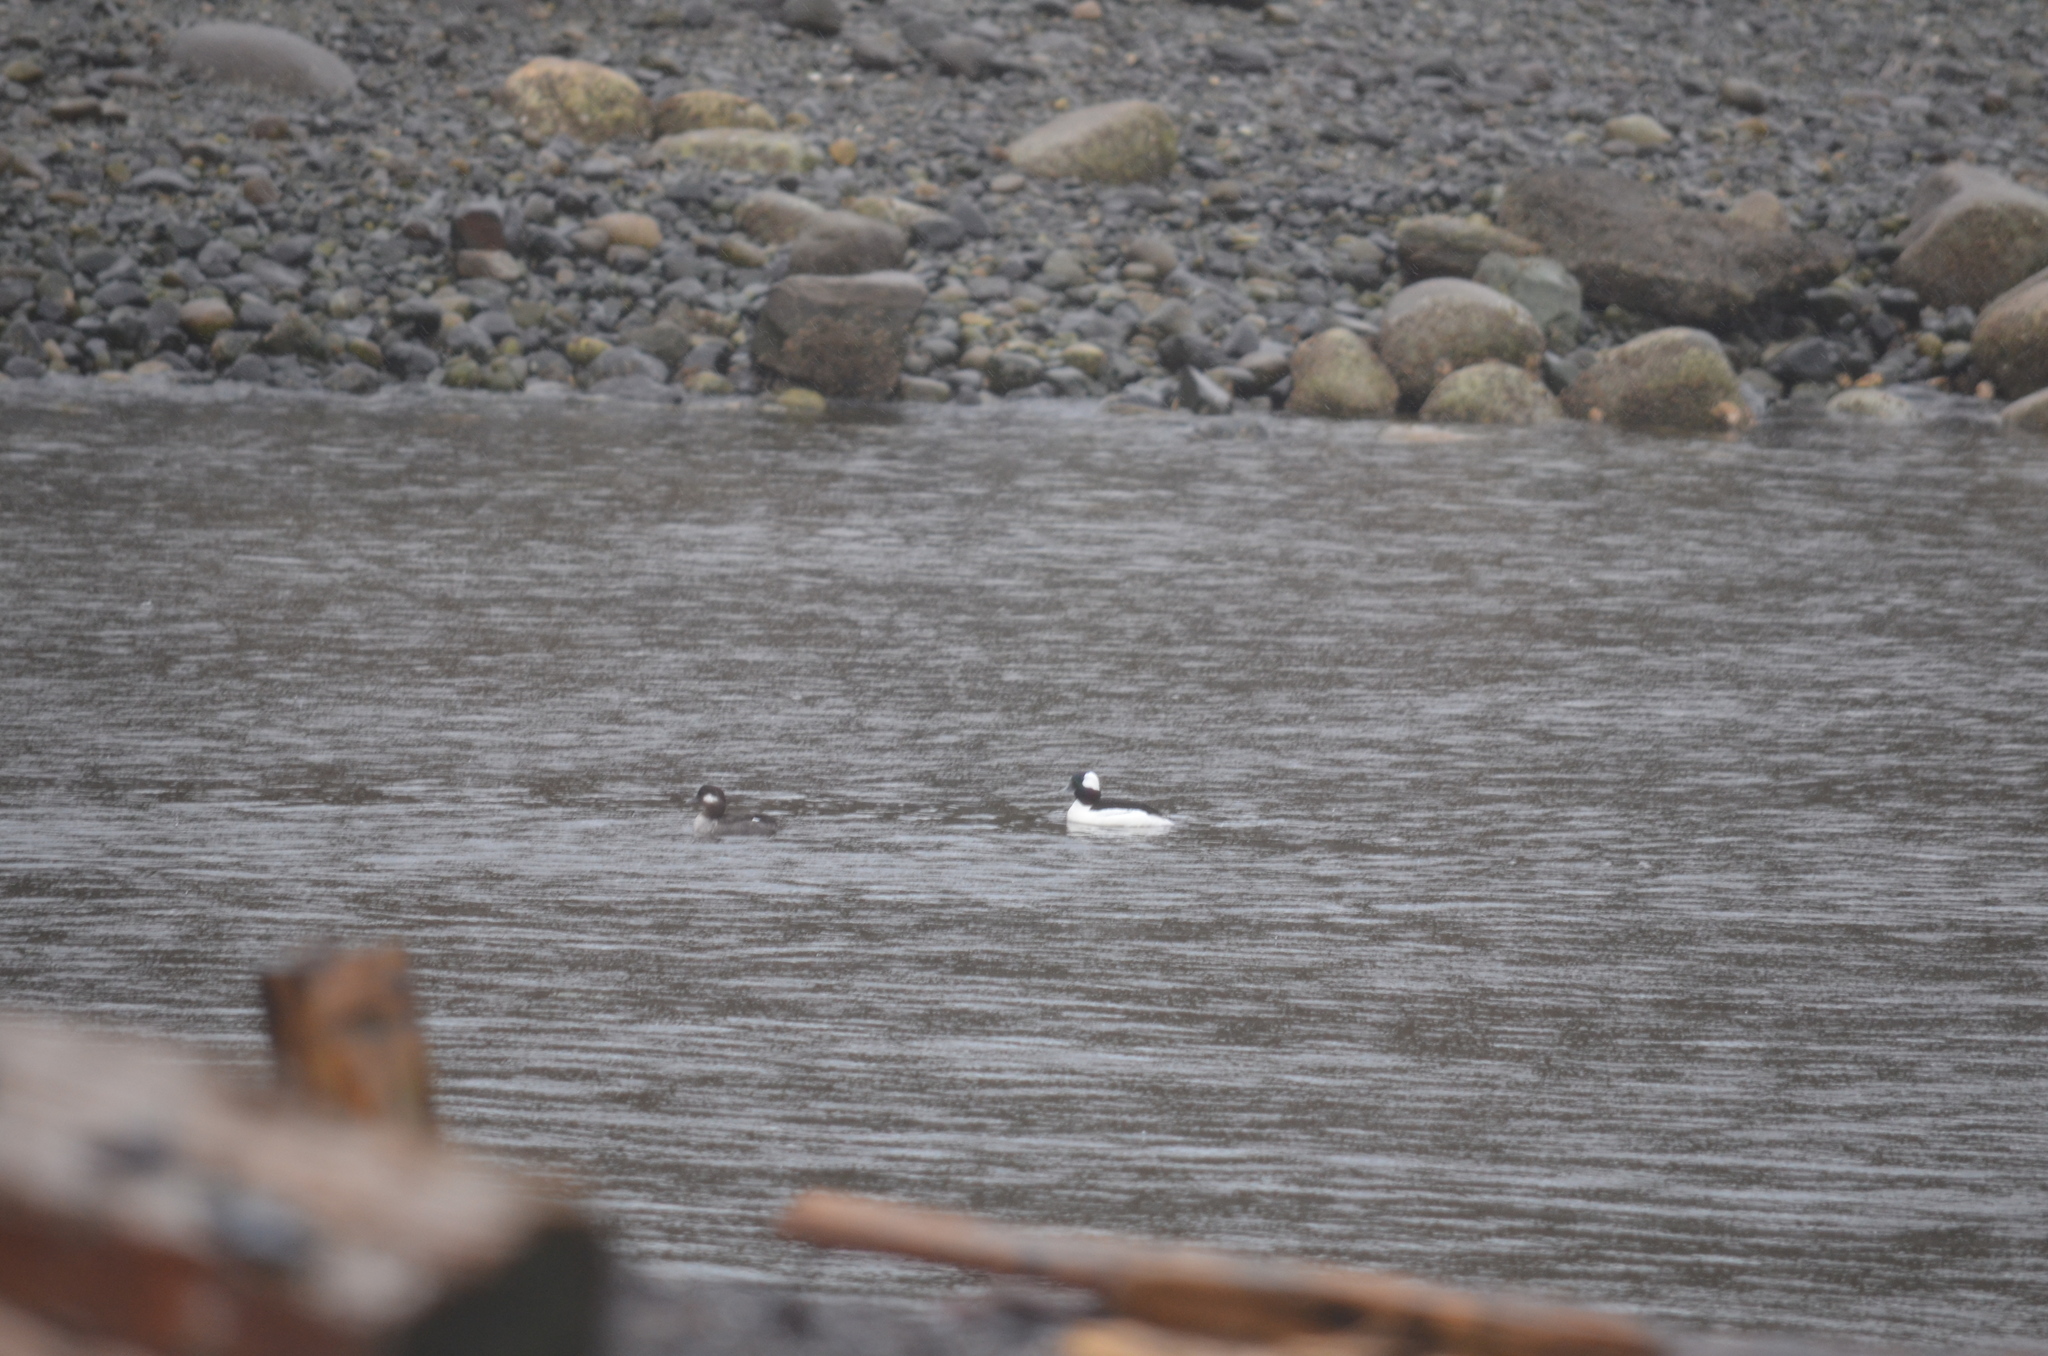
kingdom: Animalia
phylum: Chordata
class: Aves
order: Anseriformes
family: Anatidae
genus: Bucephala
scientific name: Bucephala albeola
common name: Bufflehead
